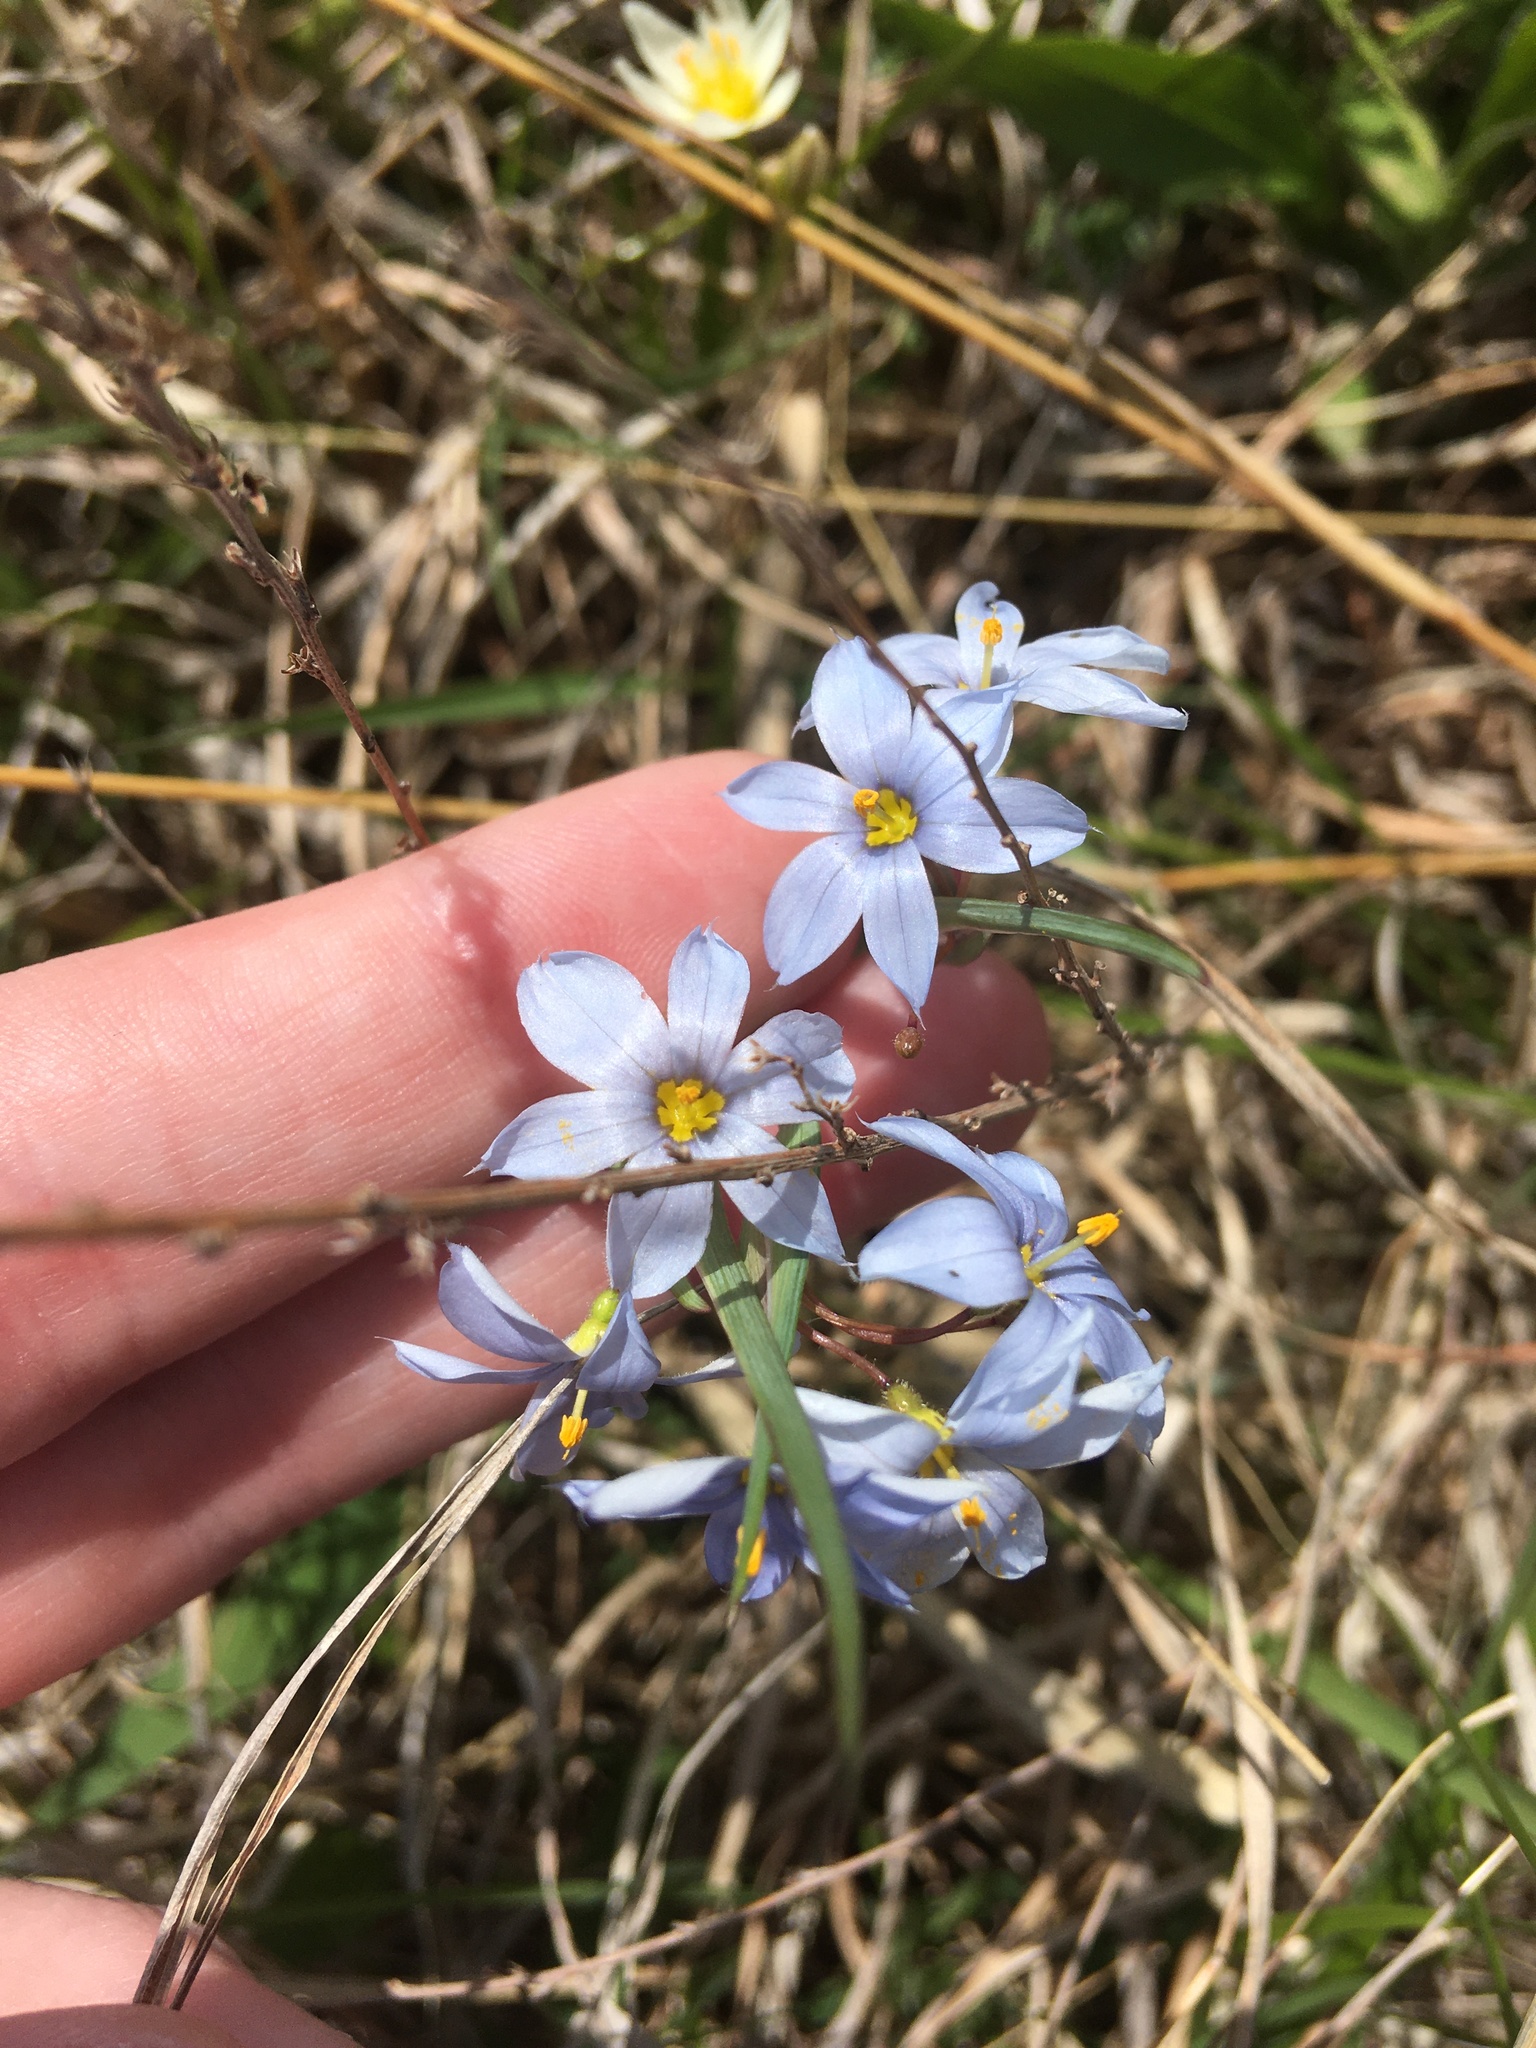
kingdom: Plantae
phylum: Tracheophyta
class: Liliopsida
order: Asparagales
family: Iridaceae
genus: Sisyrinchium
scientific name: Sisyrinchium campestre
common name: Prairie blue-eyed-grass
